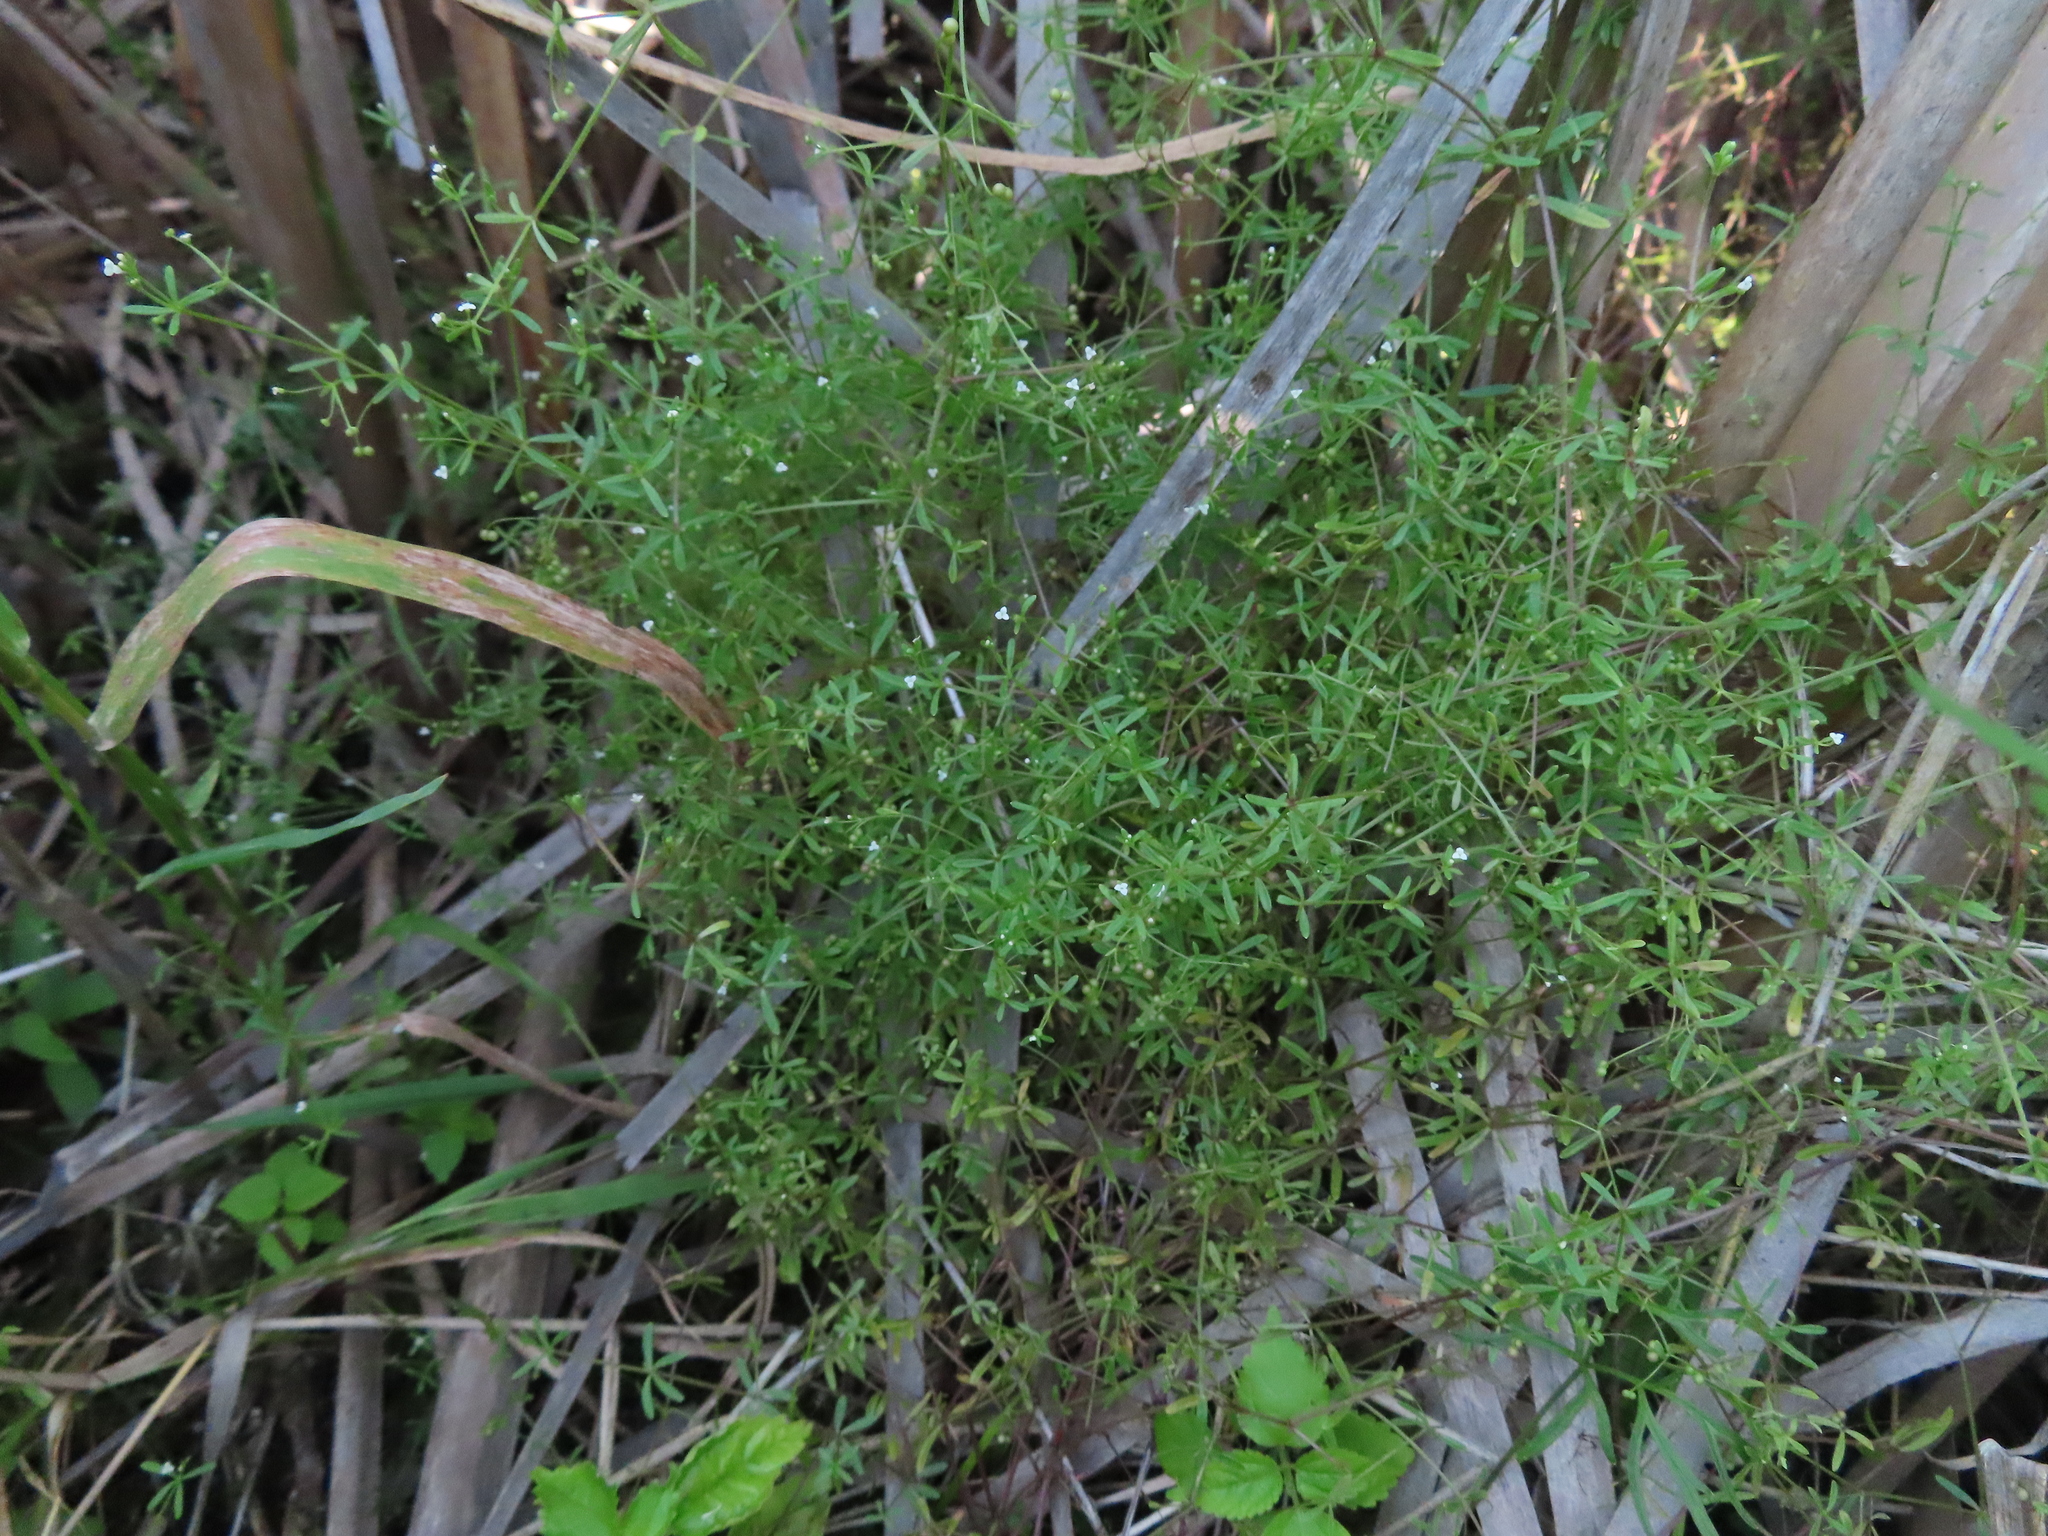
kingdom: Plantae
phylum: Tracheophyta
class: Magnoliopsida
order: Gentianales
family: Rubiaceae
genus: Galium
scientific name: Galium trifidum
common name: Small bedstraw
